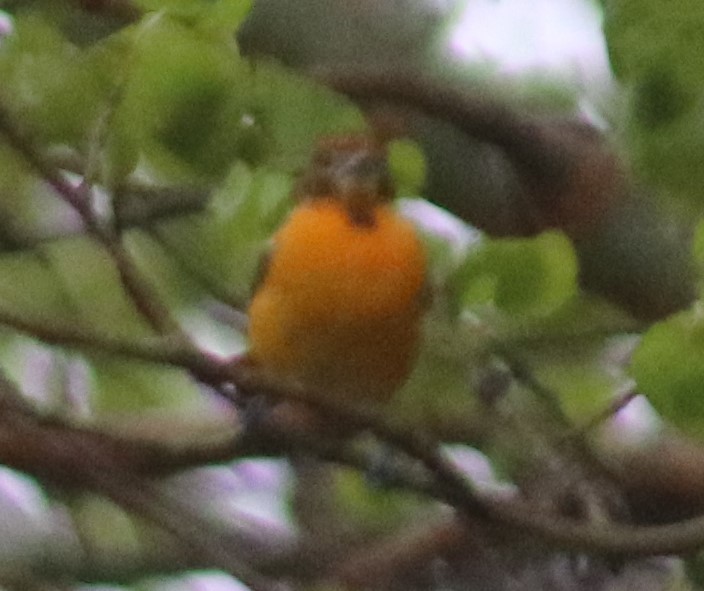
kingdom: Animalia
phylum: Chordata
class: Aves
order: Passeriformes
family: Icteridae
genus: Icterus
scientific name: Icterus galbula
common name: Baltimore oriole
